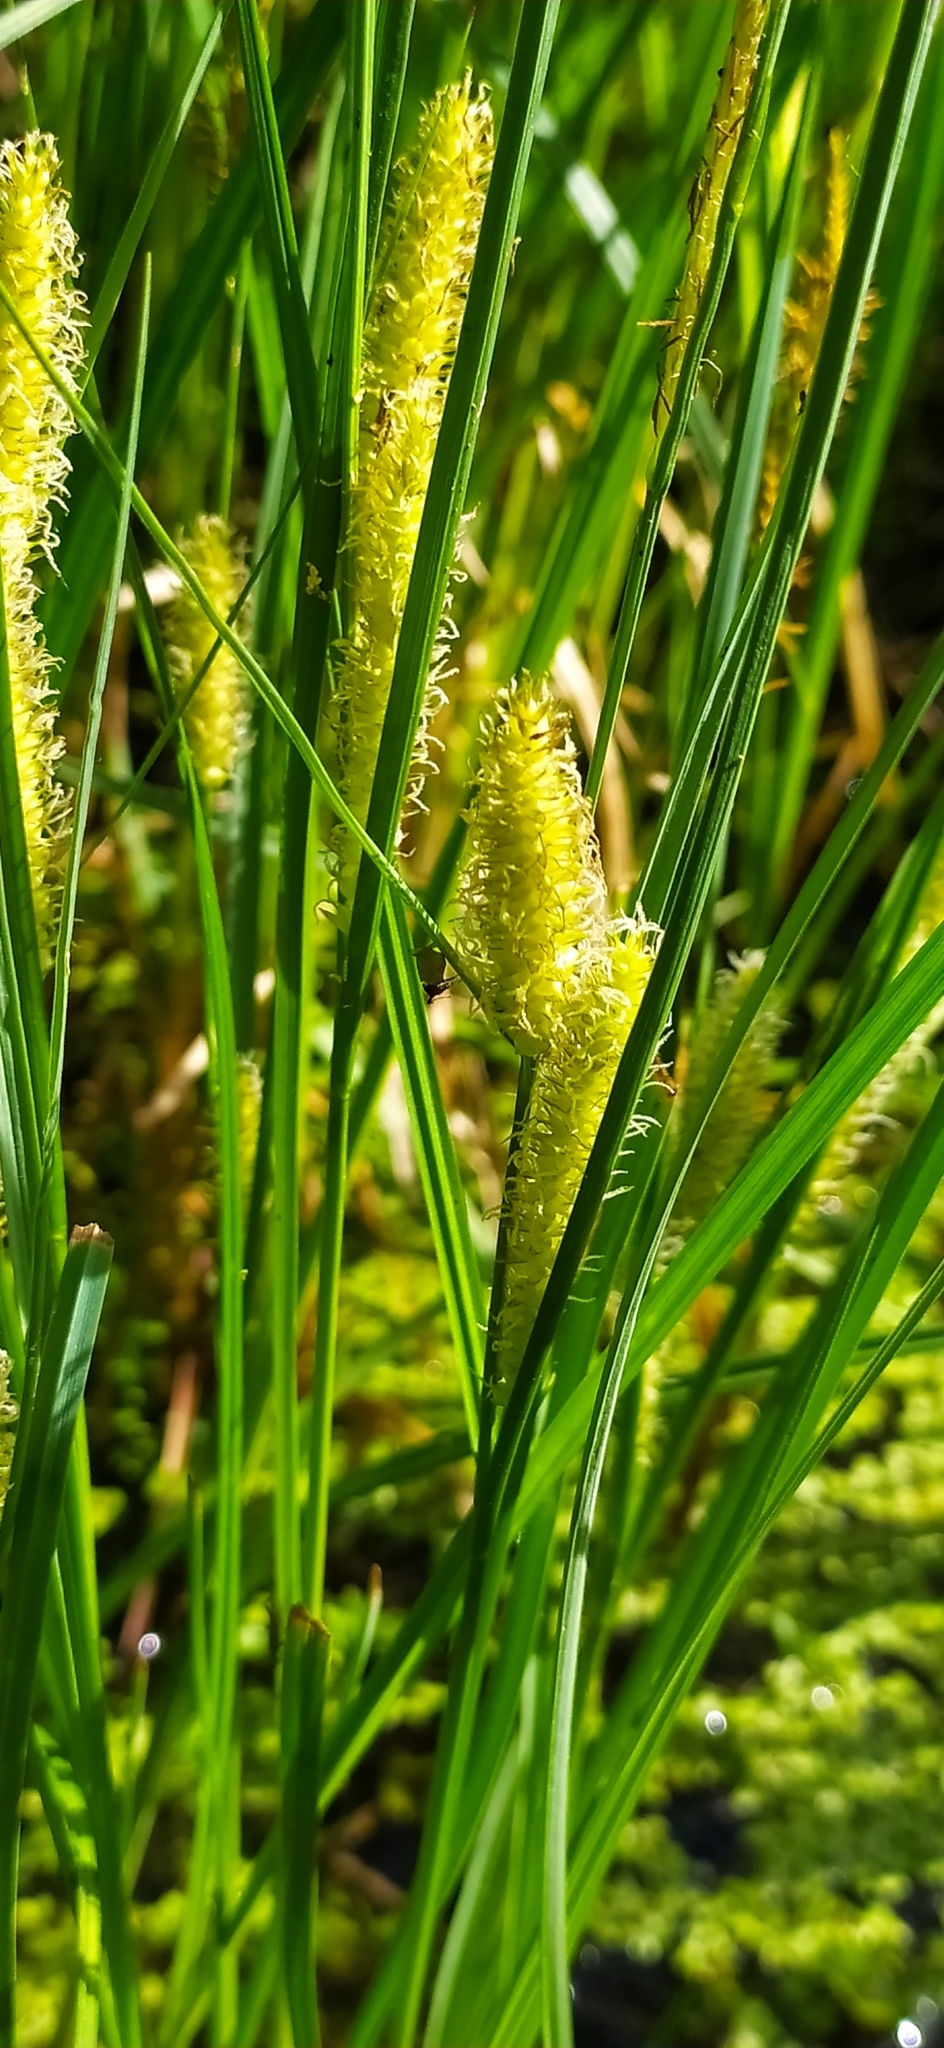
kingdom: Plantae
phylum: Tracheophyta
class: Liliopsida
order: Poales
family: Cyperaceae
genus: Carex
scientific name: Carex rostrata
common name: Bottle sedge
